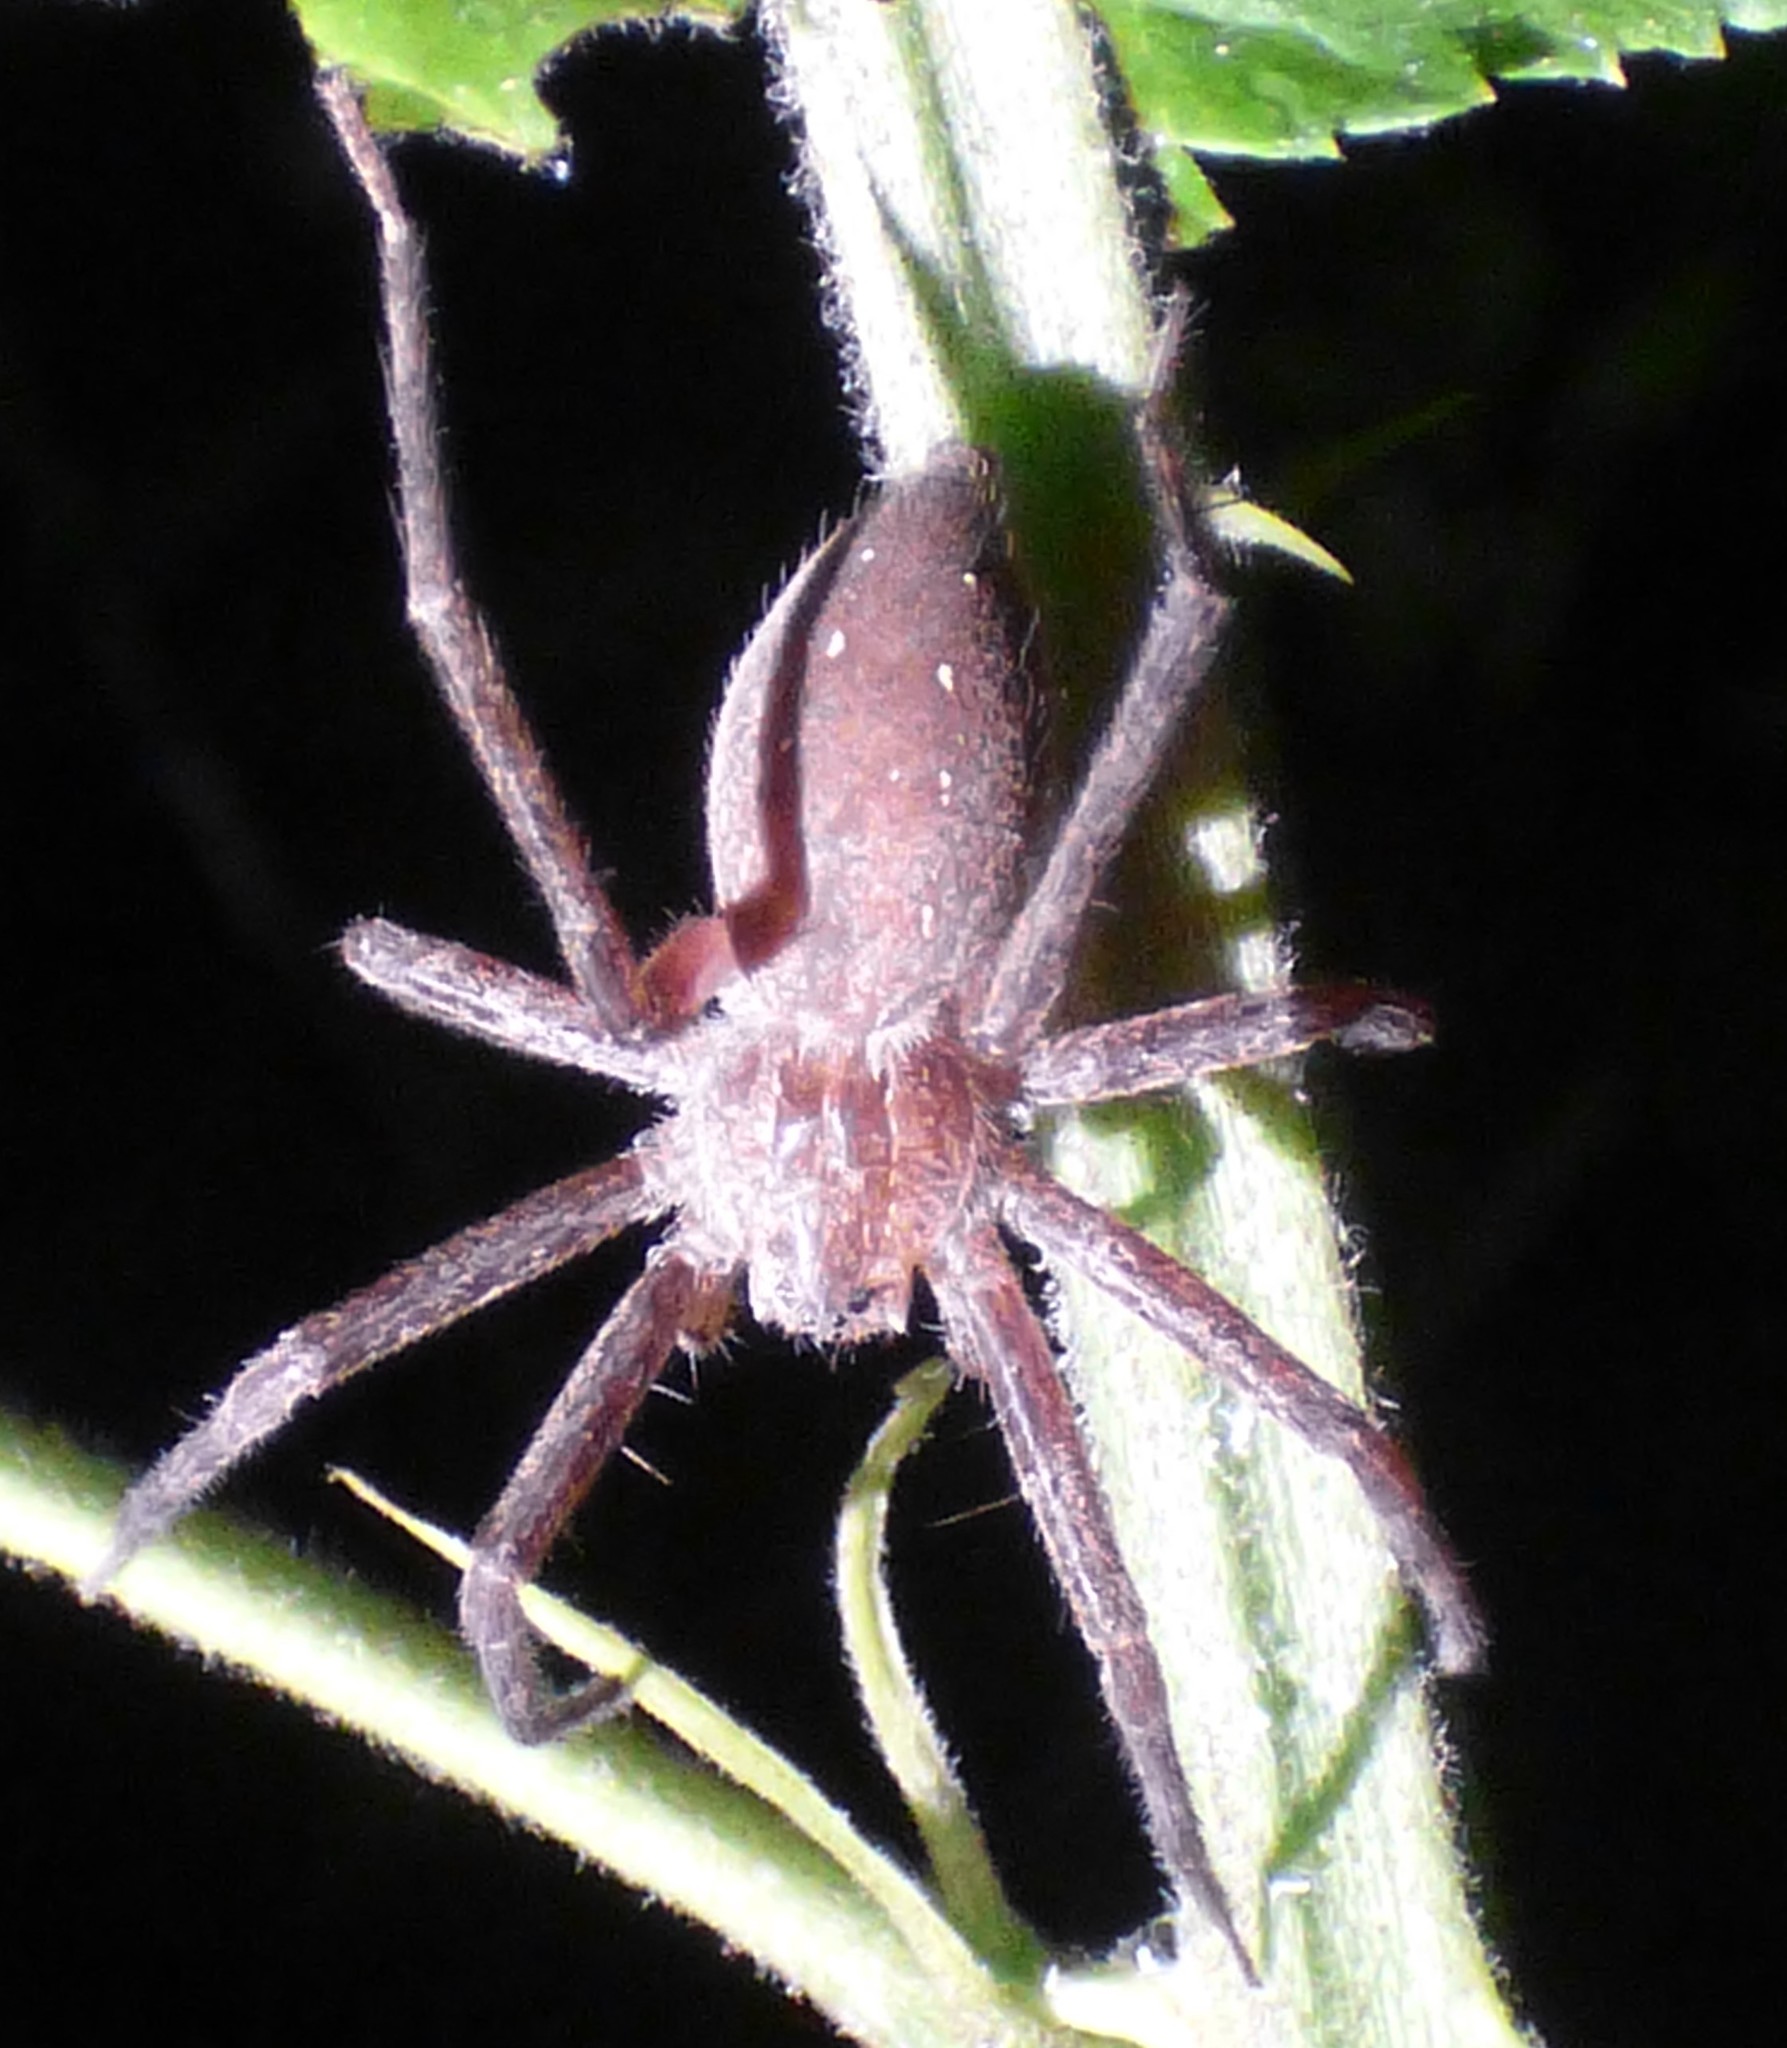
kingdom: Animalia
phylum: Arthropoda
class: Arachnida
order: Araneae
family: Pisauridae
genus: Pisaurina
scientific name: Pisaurina mira
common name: American nursery web spider
